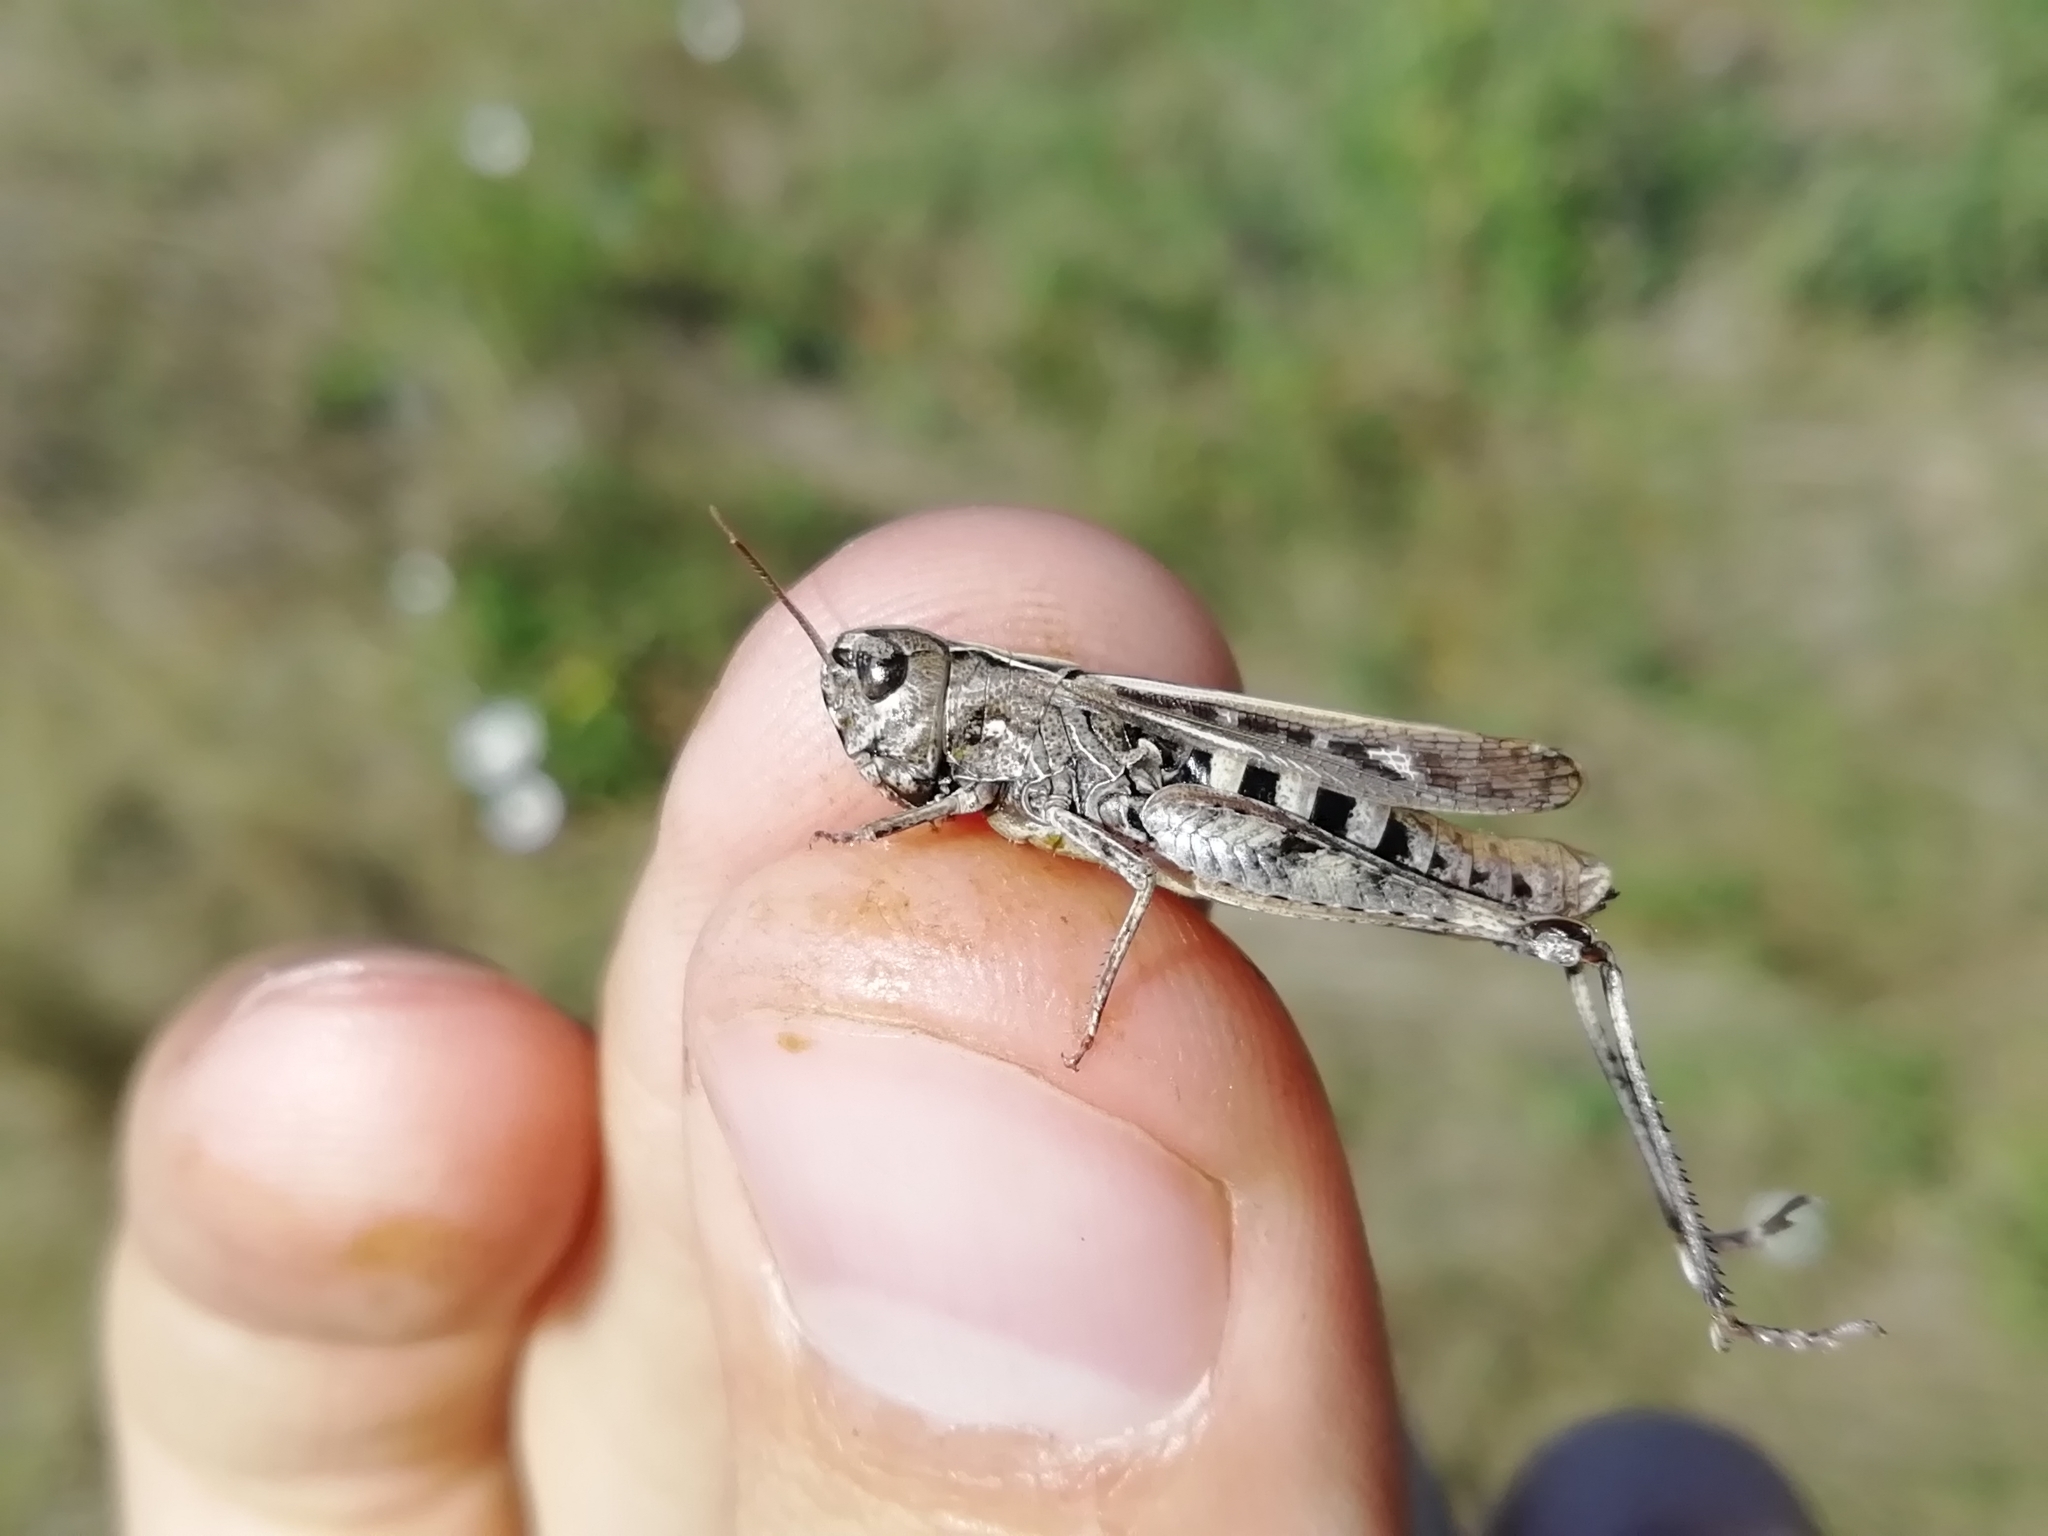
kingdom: Animalia
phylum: Arthropoda
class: Insecta
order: Orthoptera
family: Acrididae
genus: Omocestus
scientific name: Omocestus haemorrhoidalis
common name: Orange-tipped grasshopper
